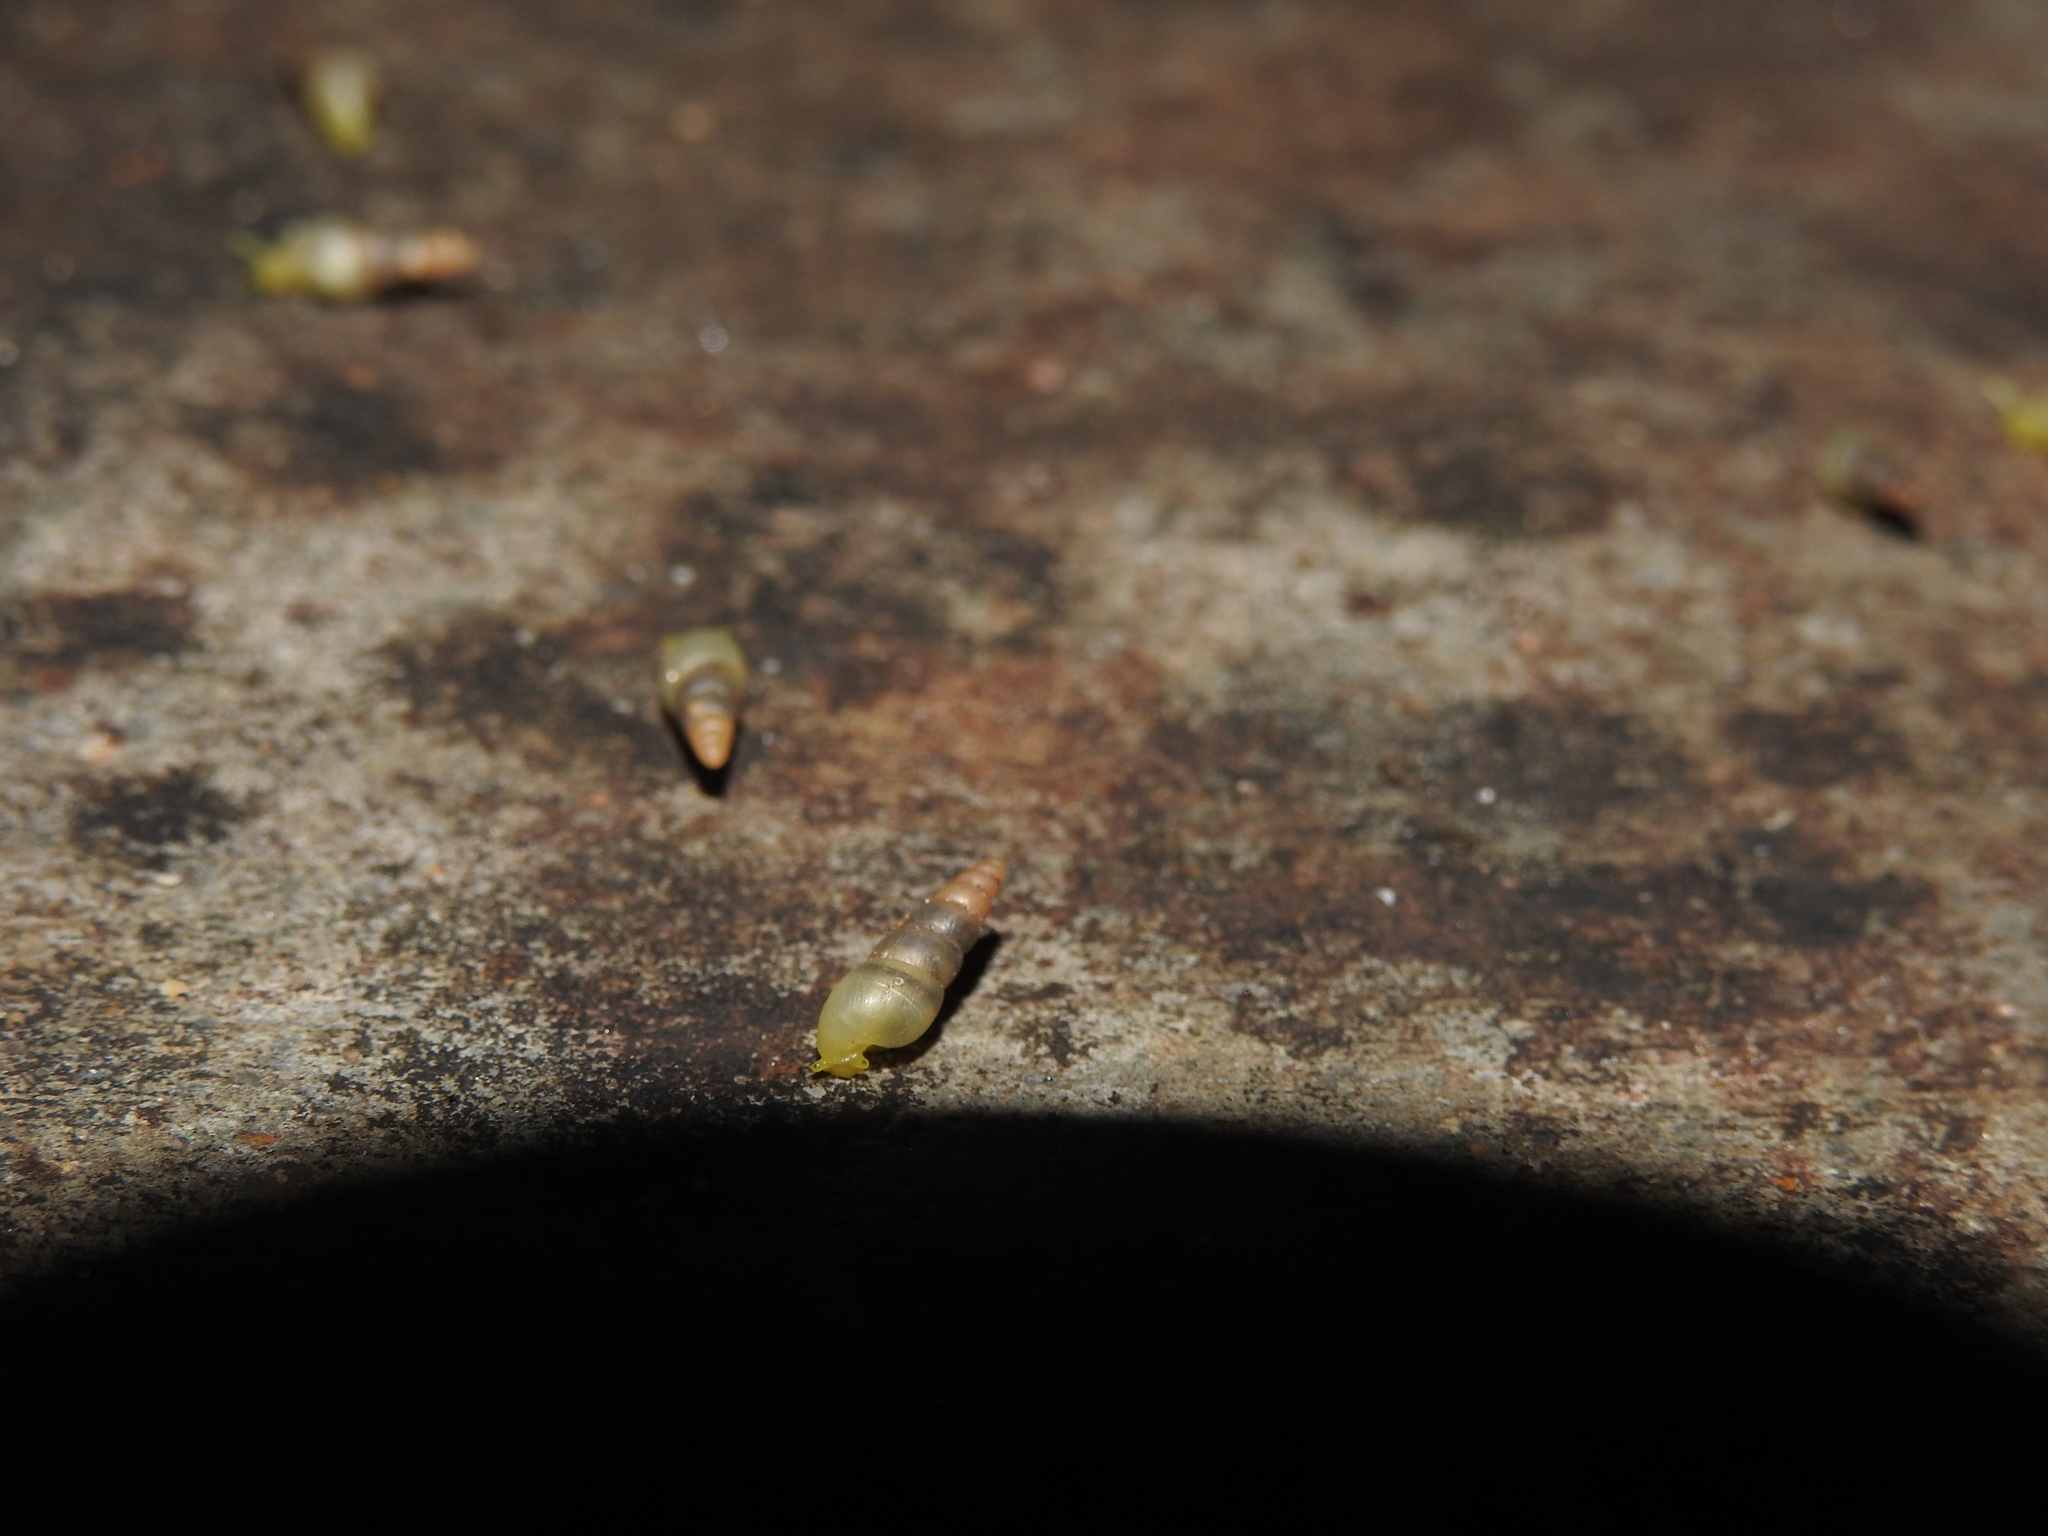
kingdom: Animalia
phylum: Mollusca
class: Gastropoda
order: Stylommatophora
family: Achatinidae
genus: Allopeas
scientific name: Allopeas gracile
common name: Graceful awlsnail
